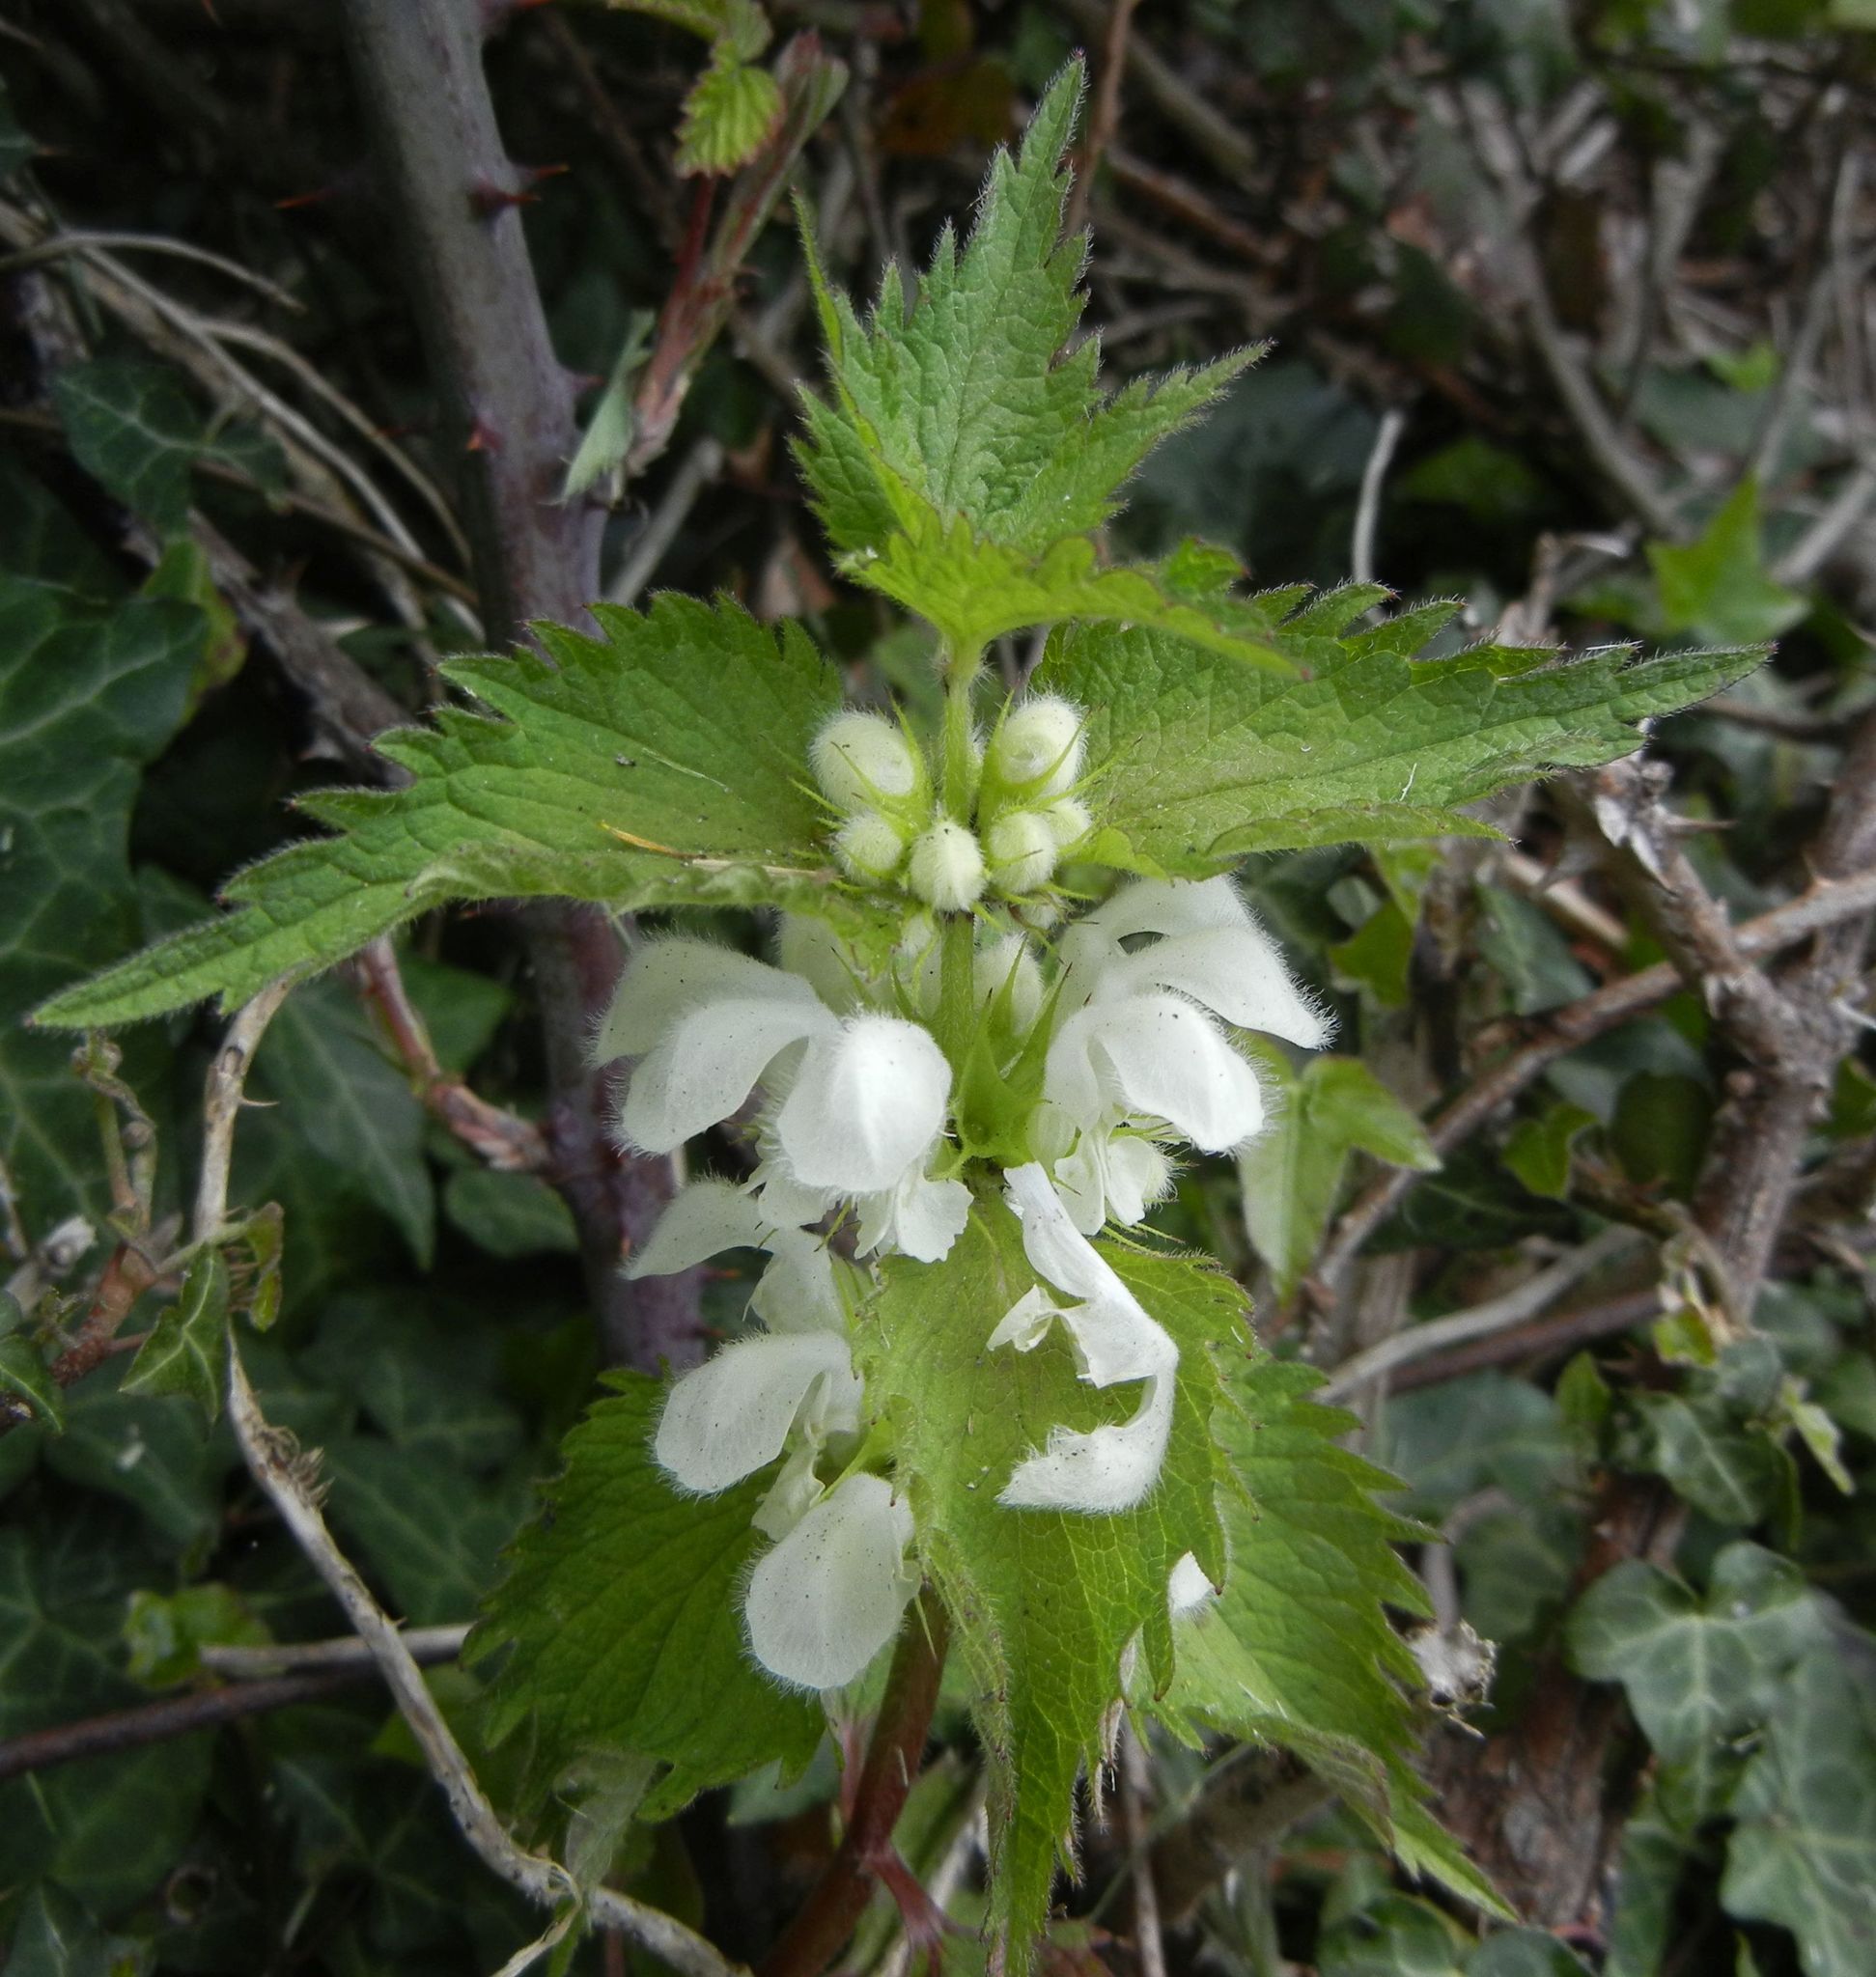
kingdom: Plantae
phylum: Tracheophyta
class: Magnoliopsida
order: Lamiales
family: Lamiaceae
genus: Lamium
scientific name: Lamium album
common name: White dead-nettle
